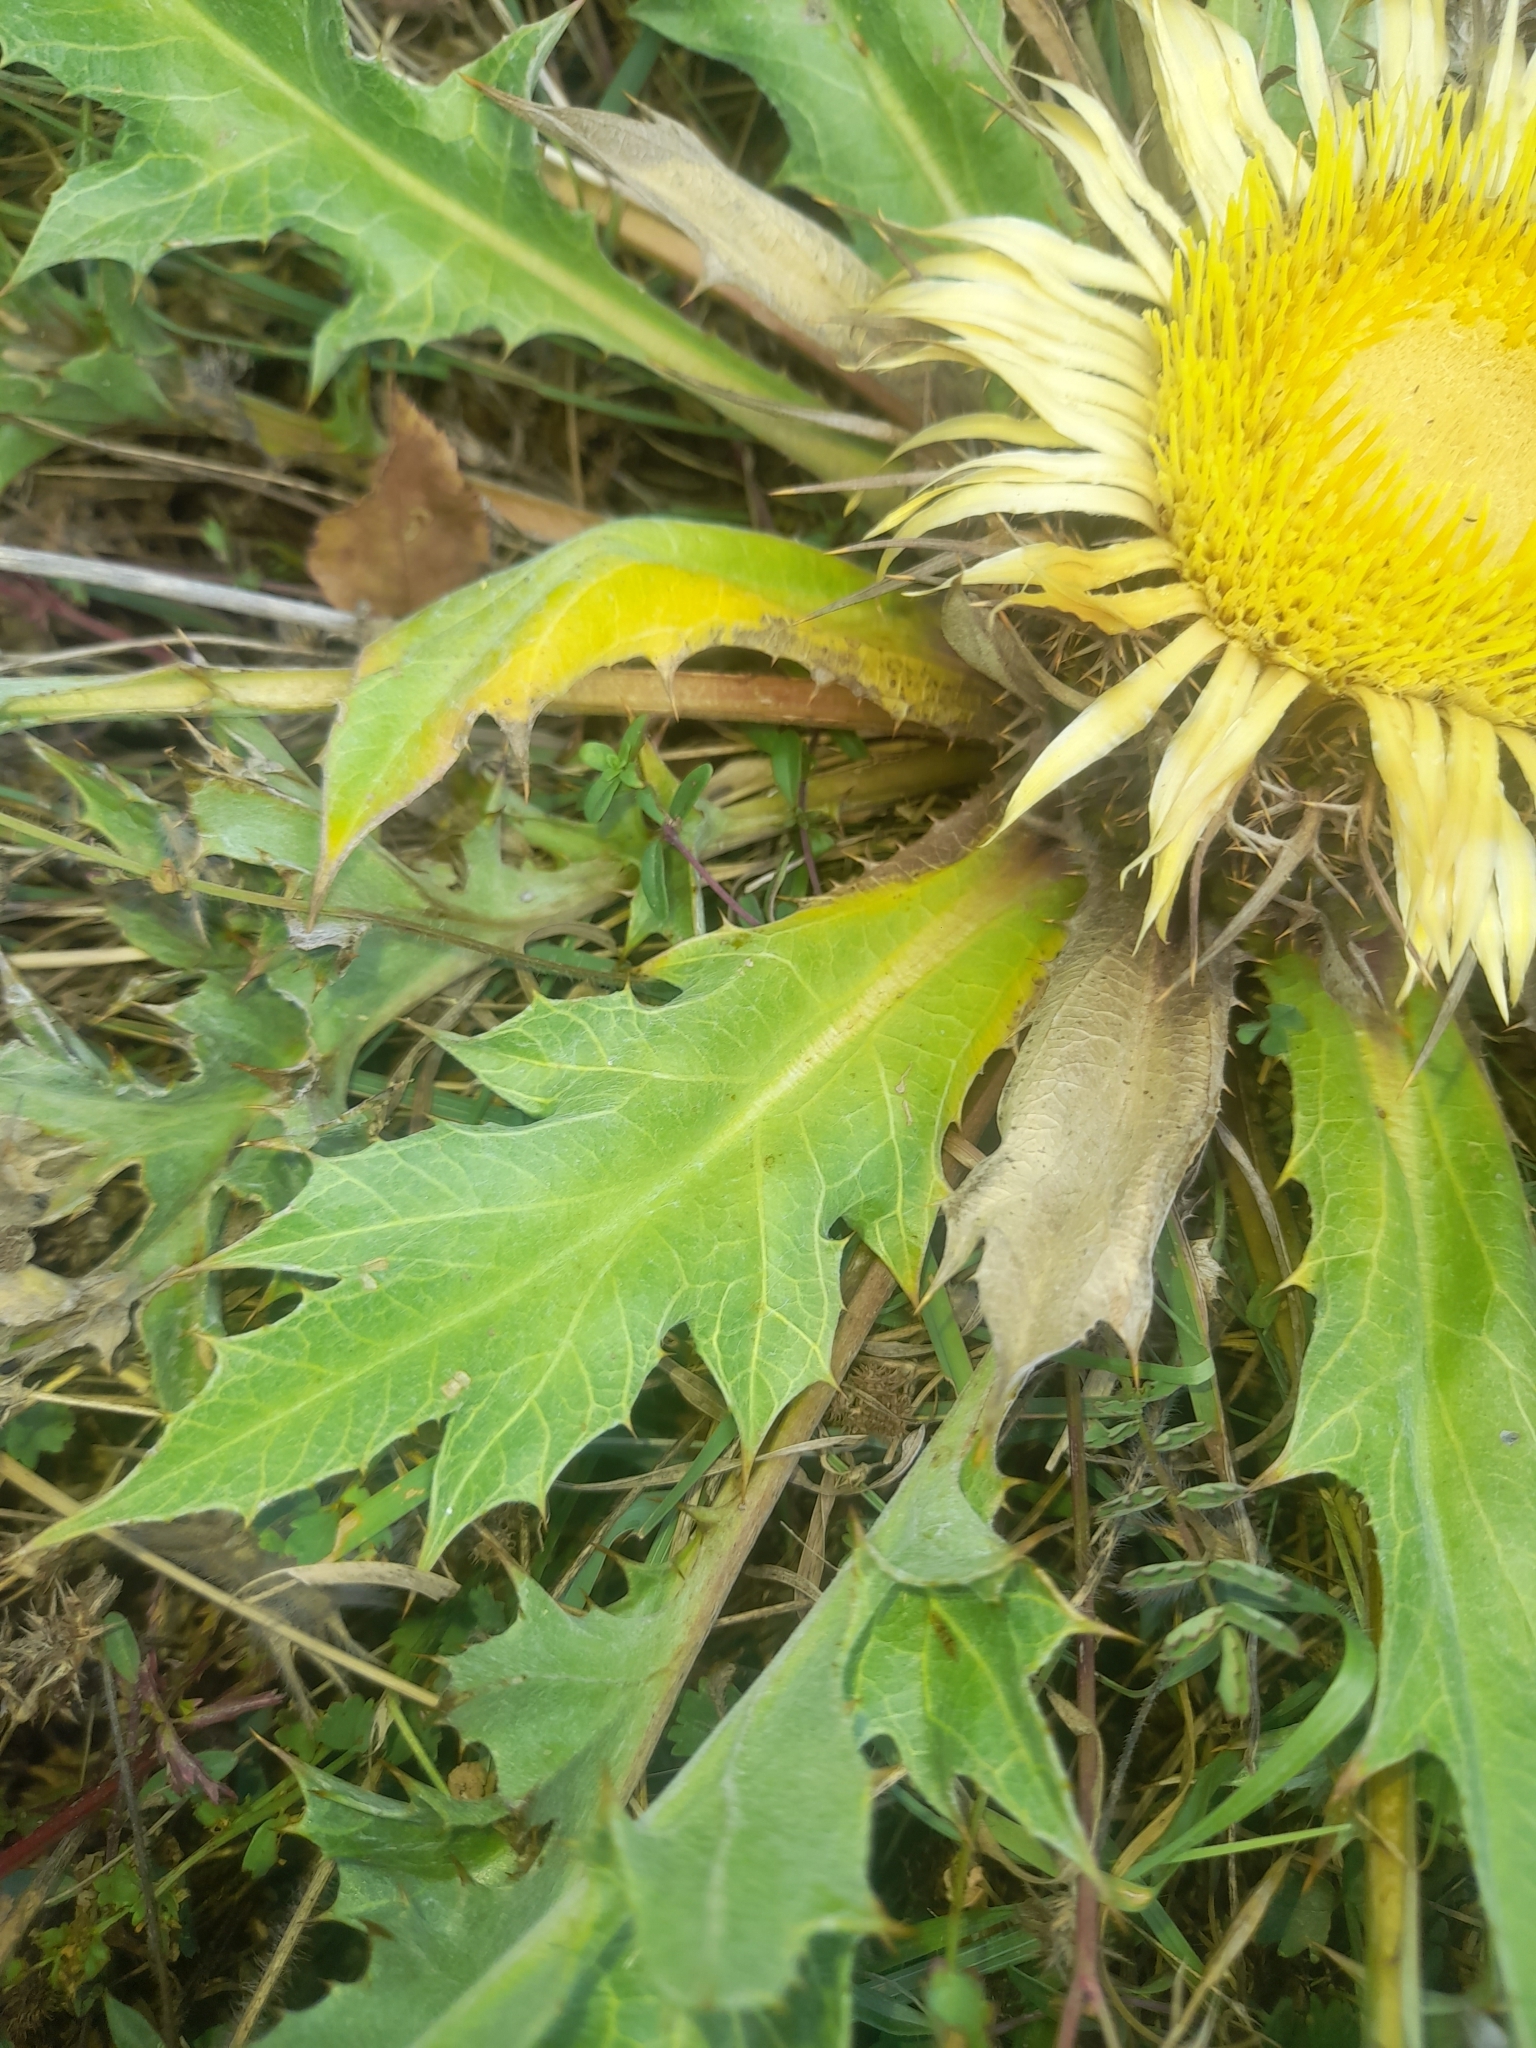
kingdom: Plantae
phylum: Tracheophyta
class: Magnoliopsida
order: Asterales
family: Asteraceae
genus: Carlina
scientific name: Carlina acanthifolia
